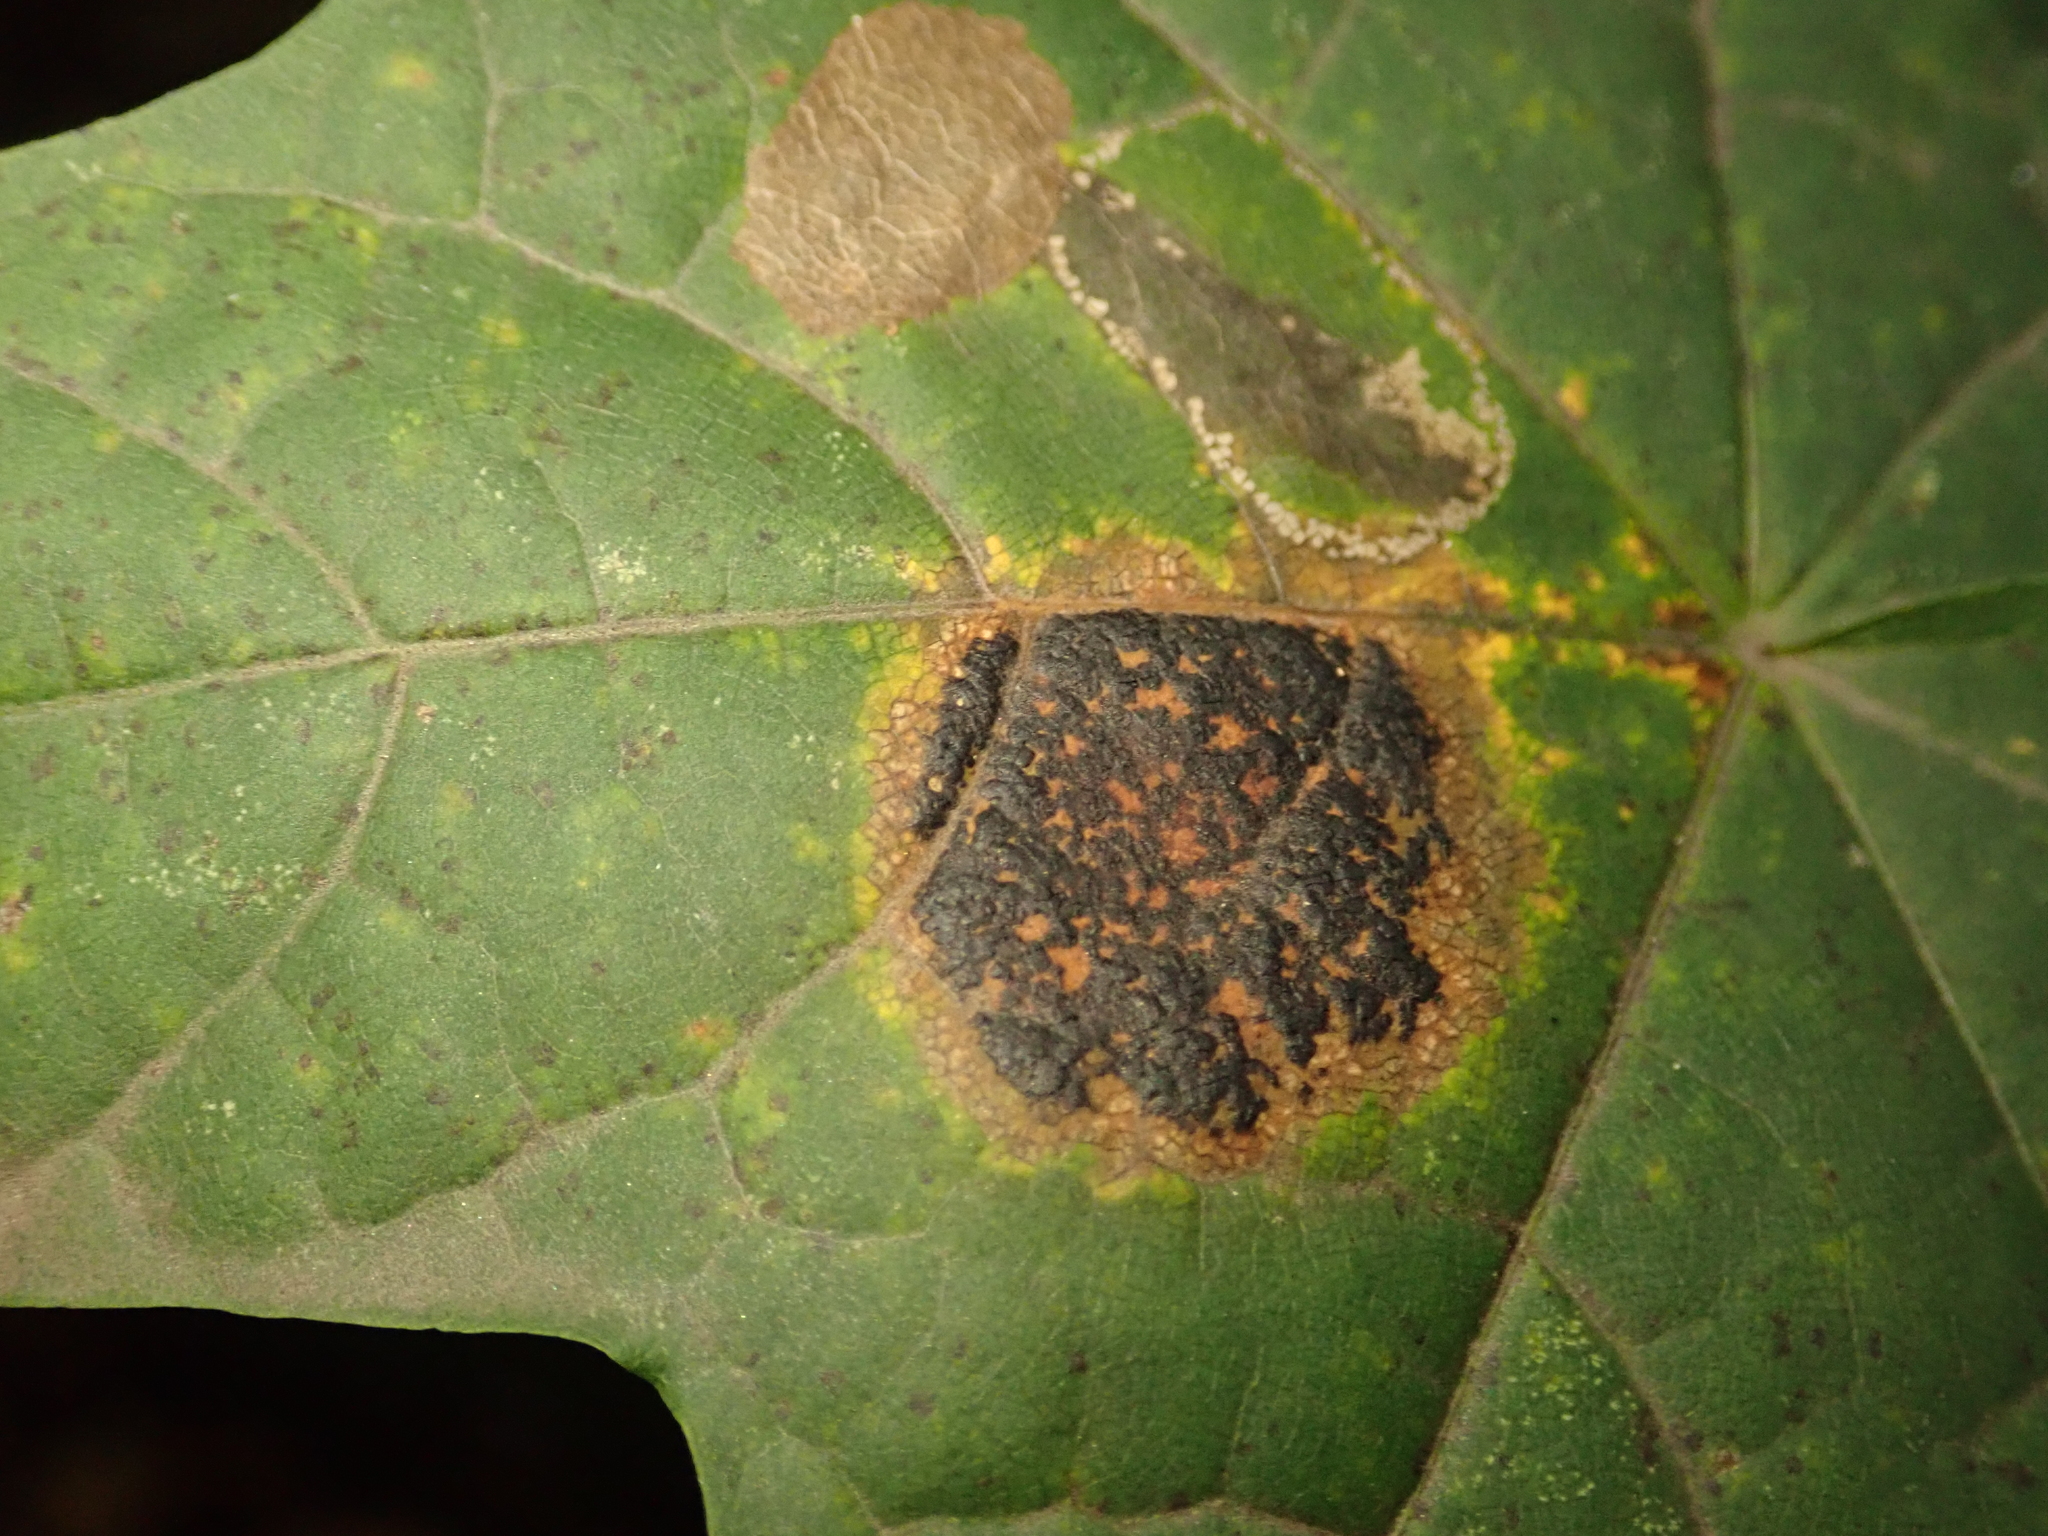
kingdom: Fungi
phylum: Ascomycota
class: Leotiomycetes
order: Rhytismatales
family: Rhytismataceae
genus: Rhytisma
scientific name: Rhytisma acerinum
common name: European tar spot
